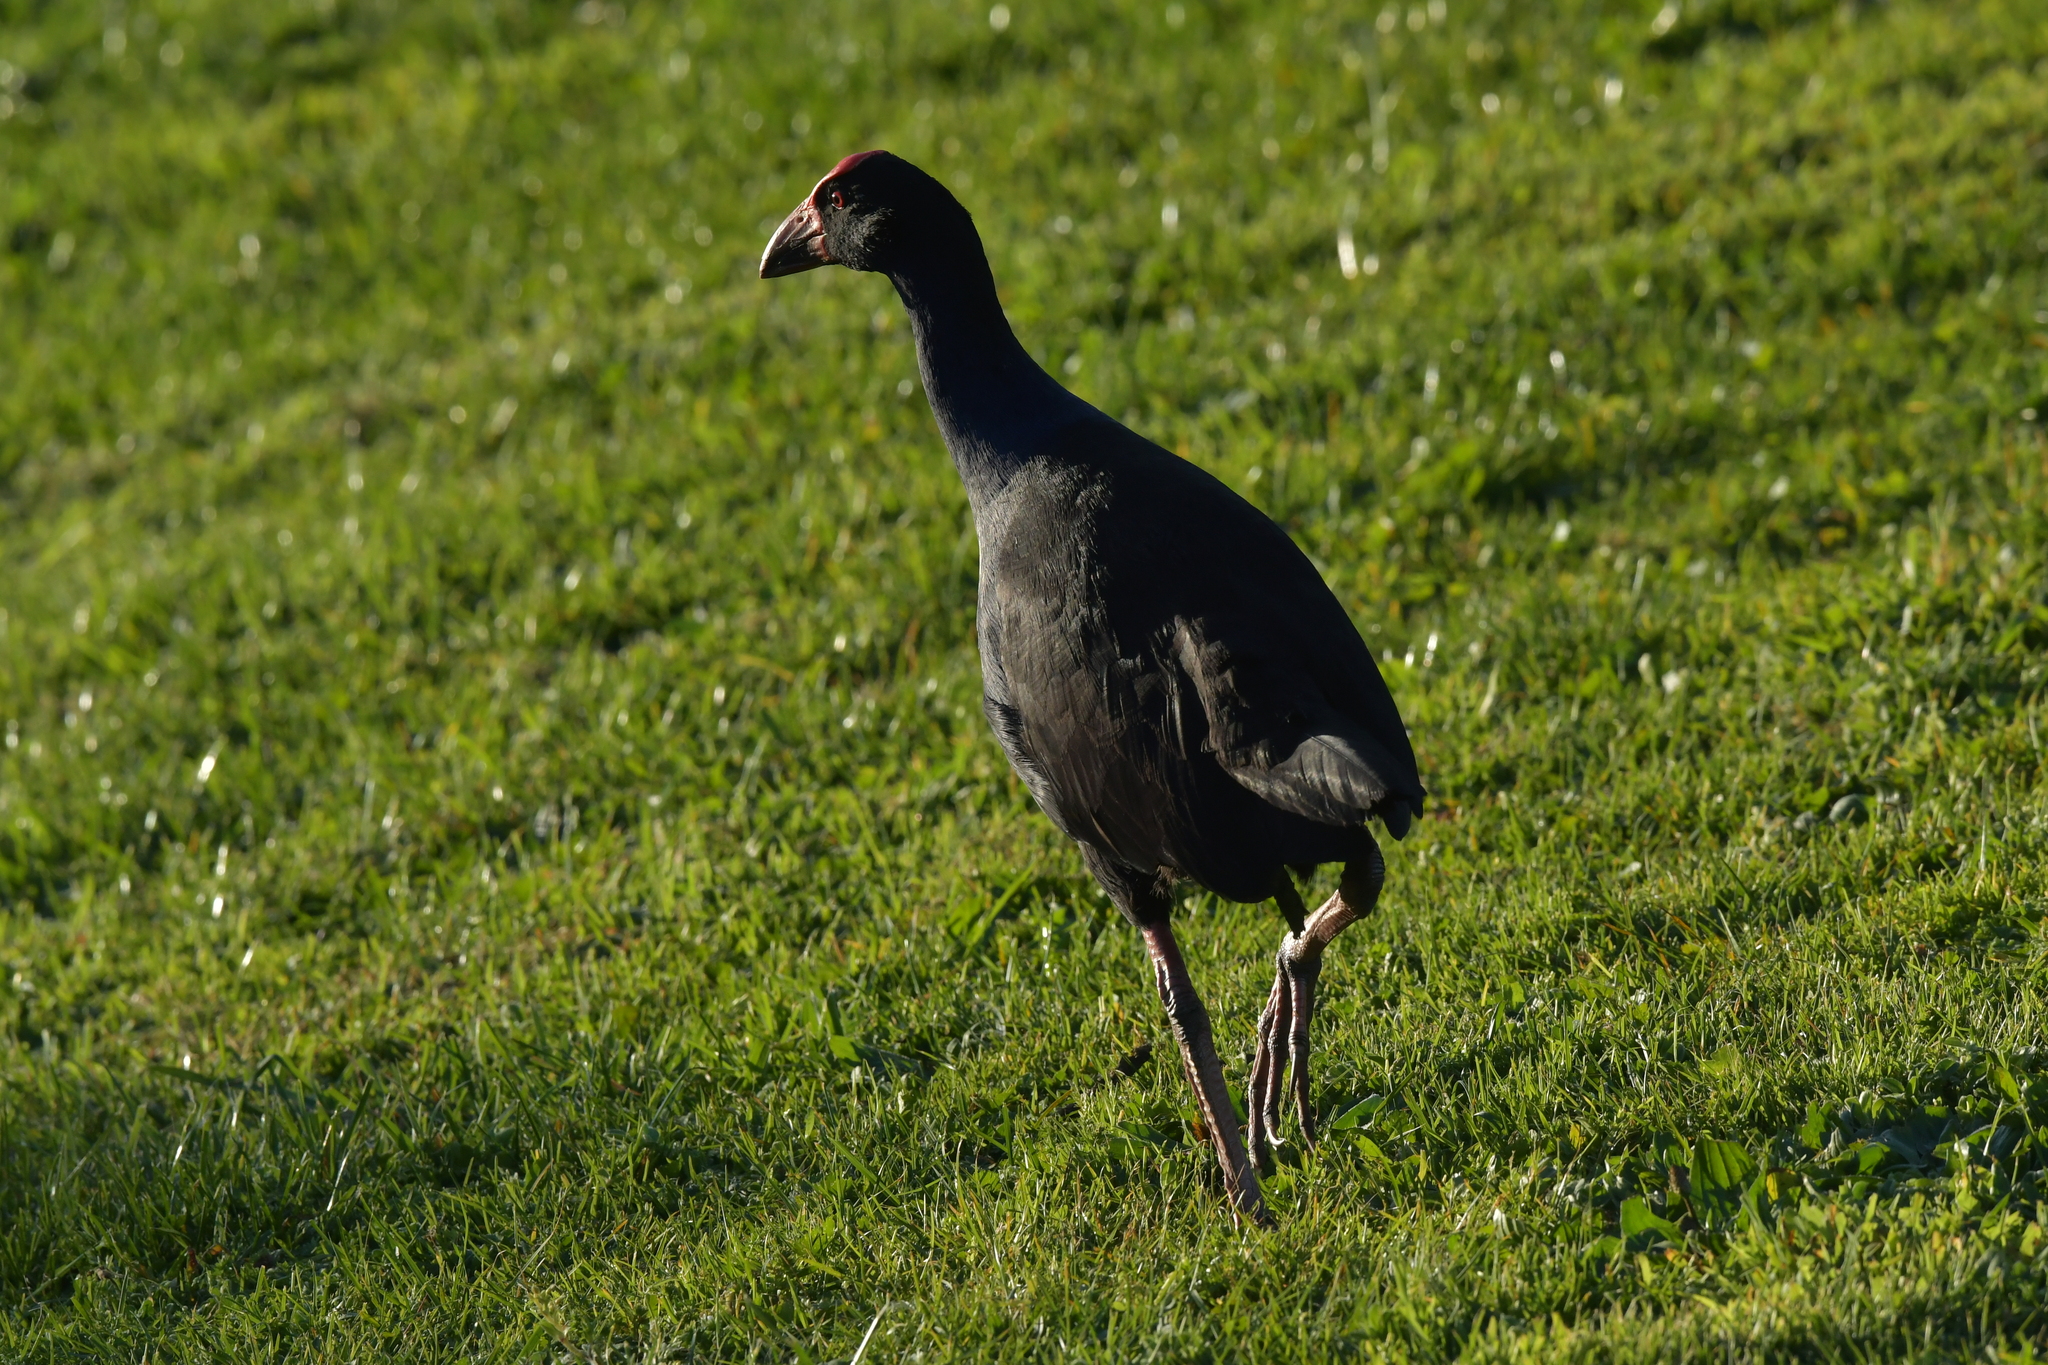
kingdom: Animalia
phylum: Chordata
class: Aves
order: Gruiformes
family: Rallidae
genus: Porphyrio
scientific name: Porphyrio melanotus
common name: Australasian swamphen
